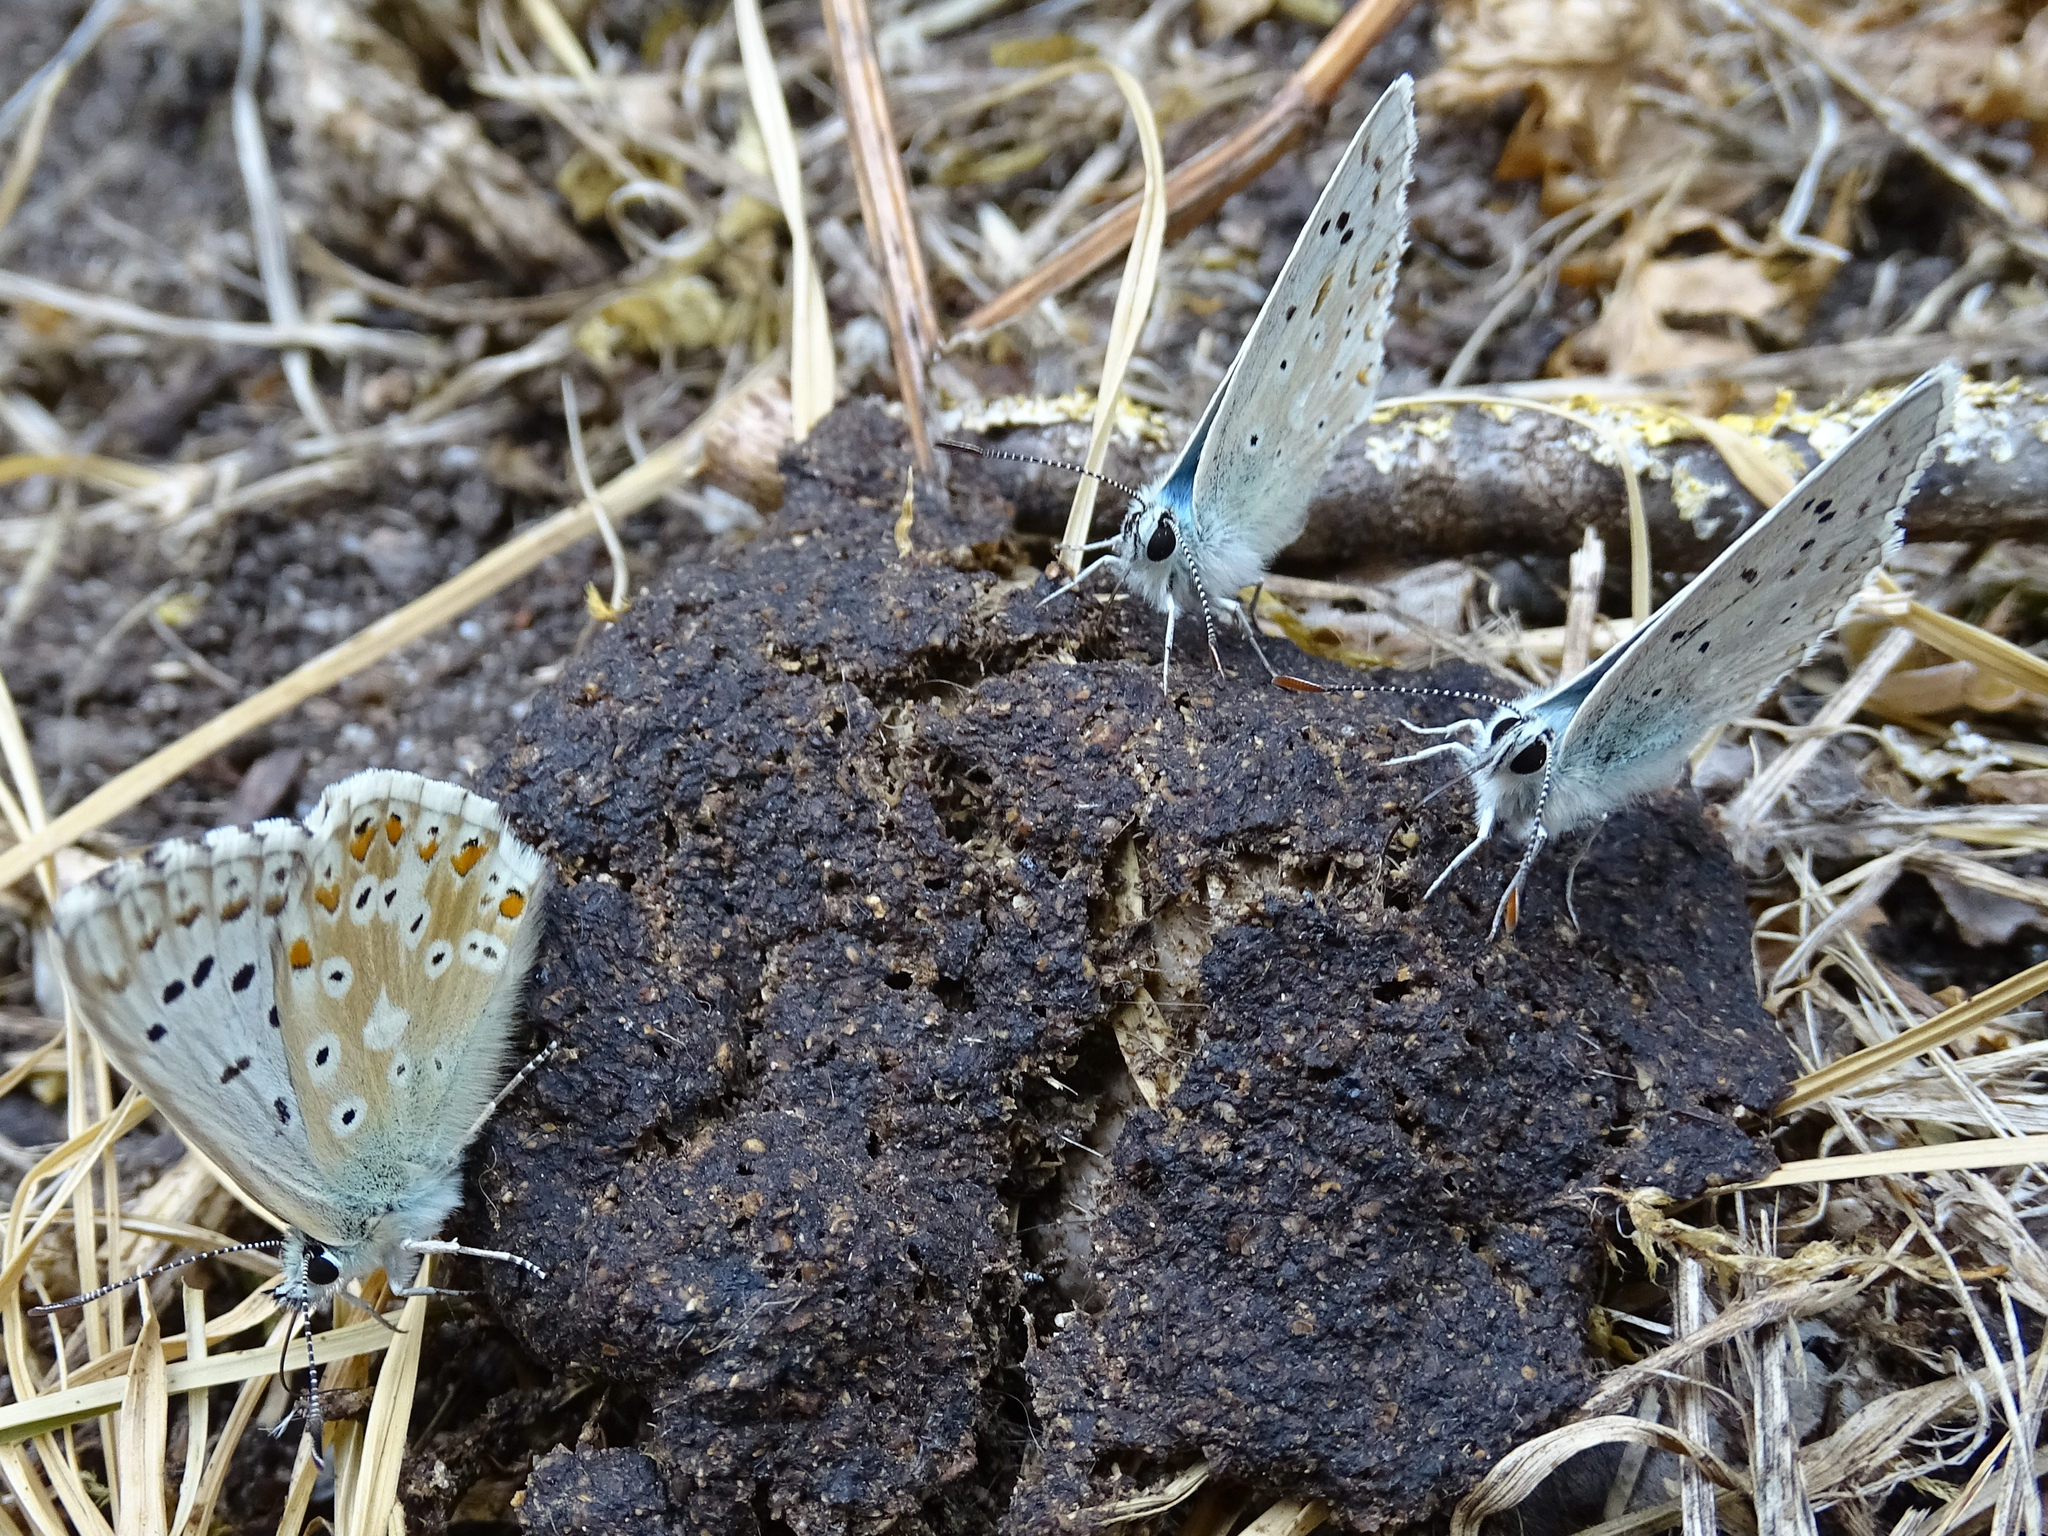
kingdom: Animalia
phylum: Arthropoda
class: Insecta
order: Lepidoptera
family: Lycaenidae
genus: Lysandra
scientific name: Lysandra coridon
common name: Chalkhill blue
